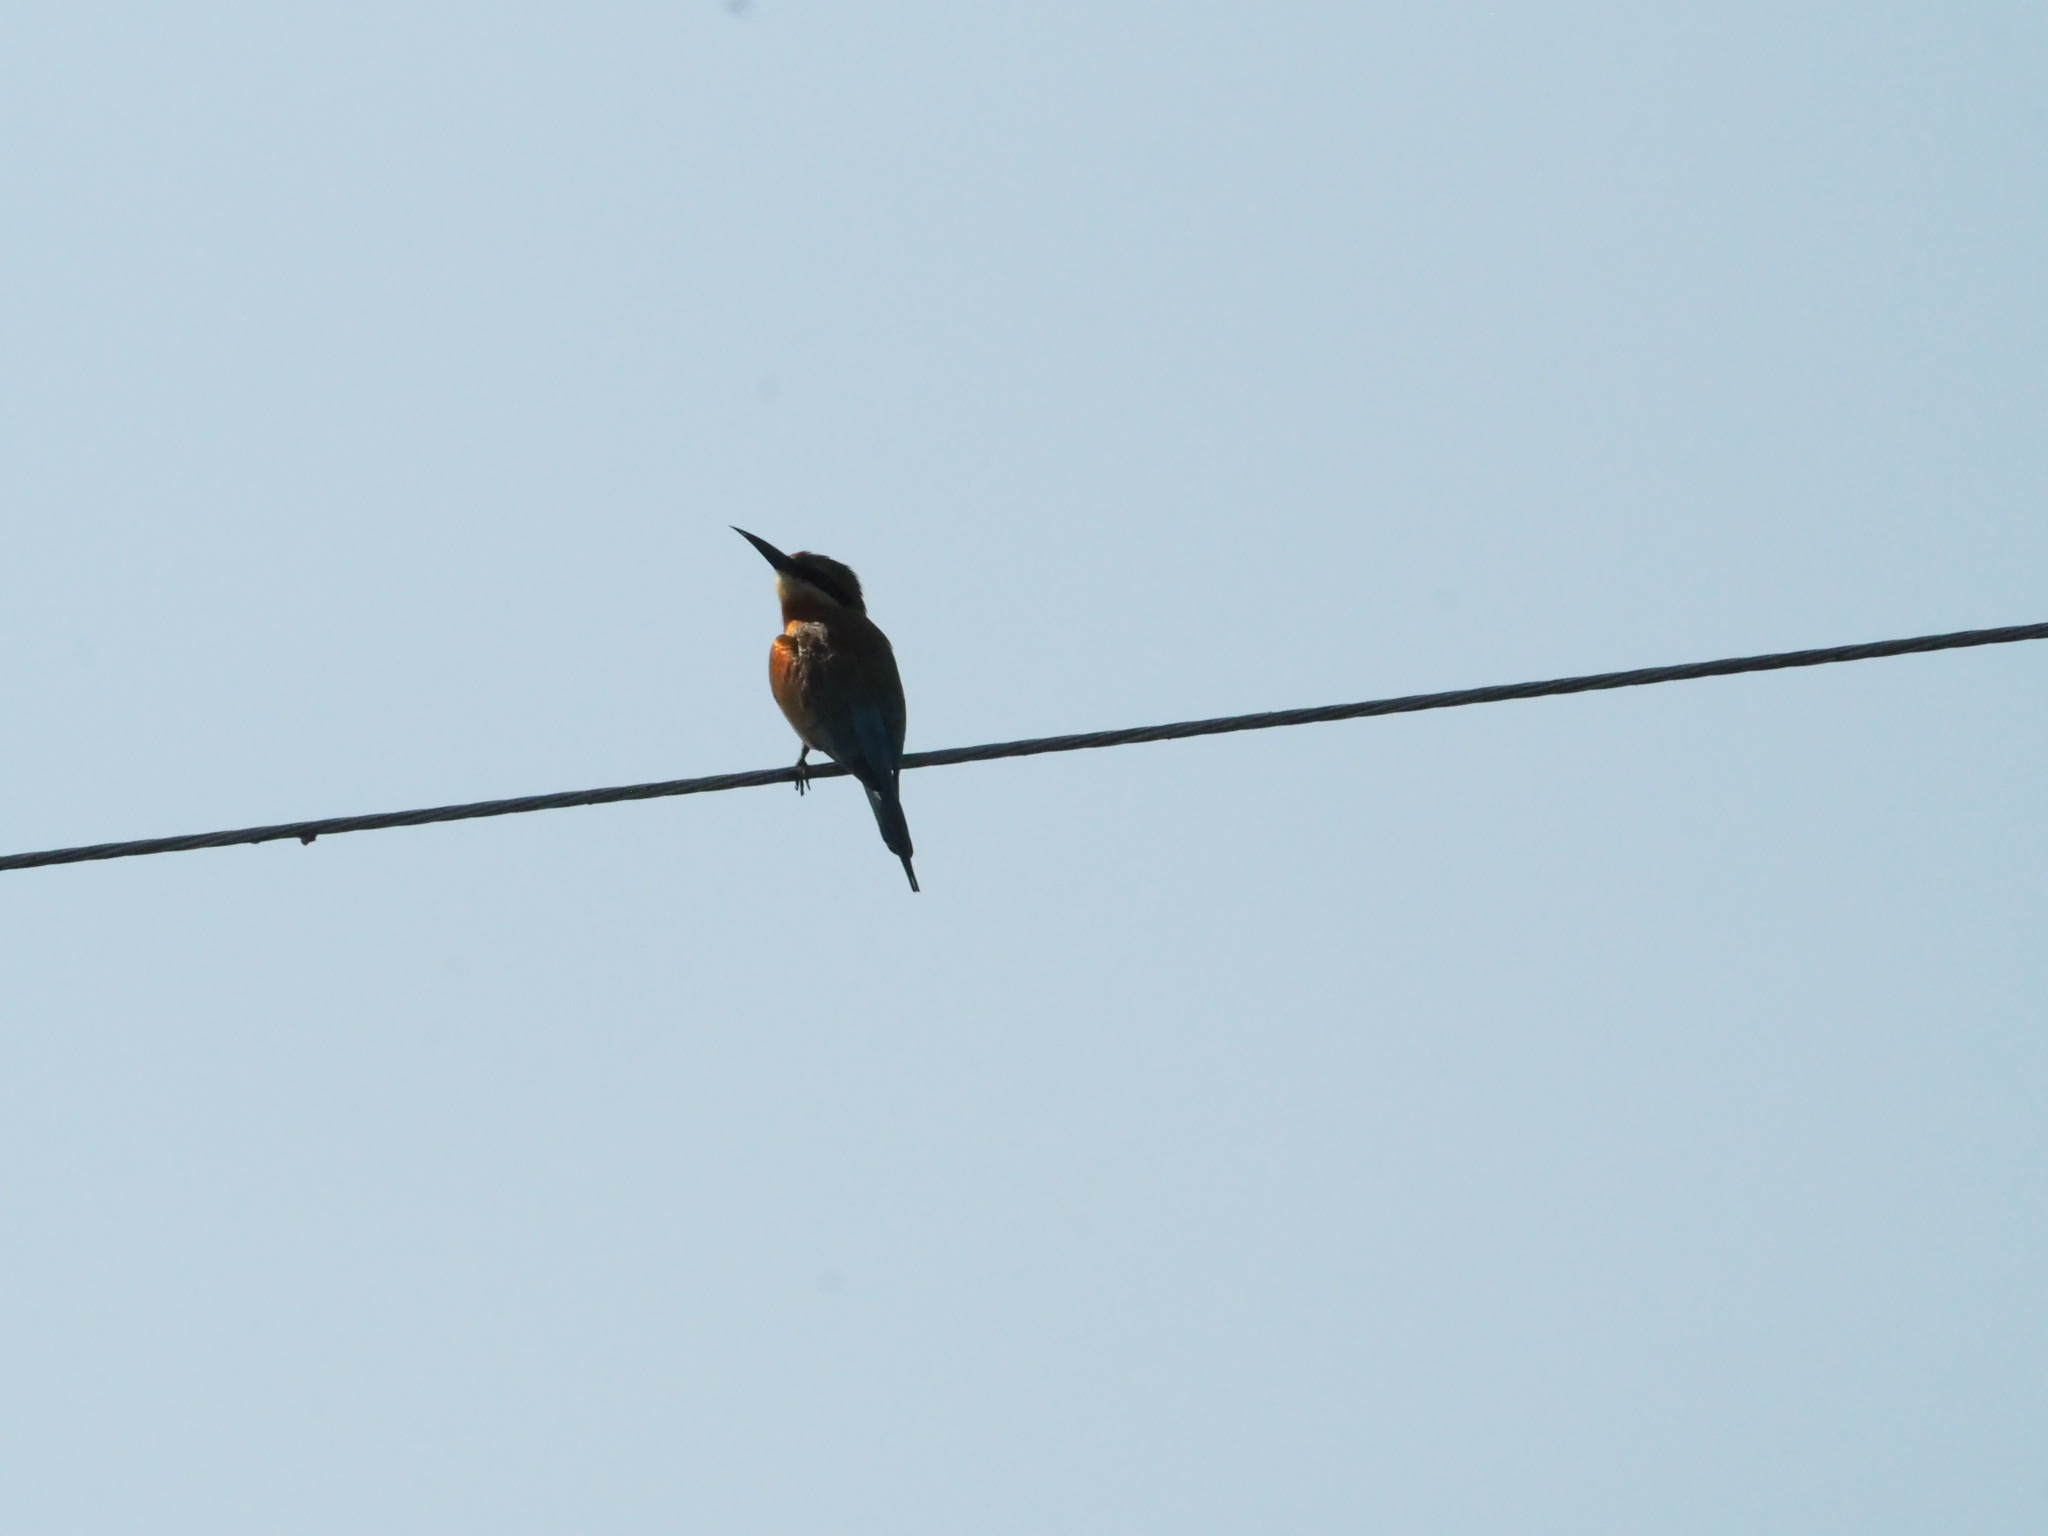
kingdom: Animalia
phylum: Chordata
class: Aves
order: Coraciiformes
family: Meropidae
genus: Merops
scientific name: Merops philippinus
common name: Blue-tailed bee-eater
